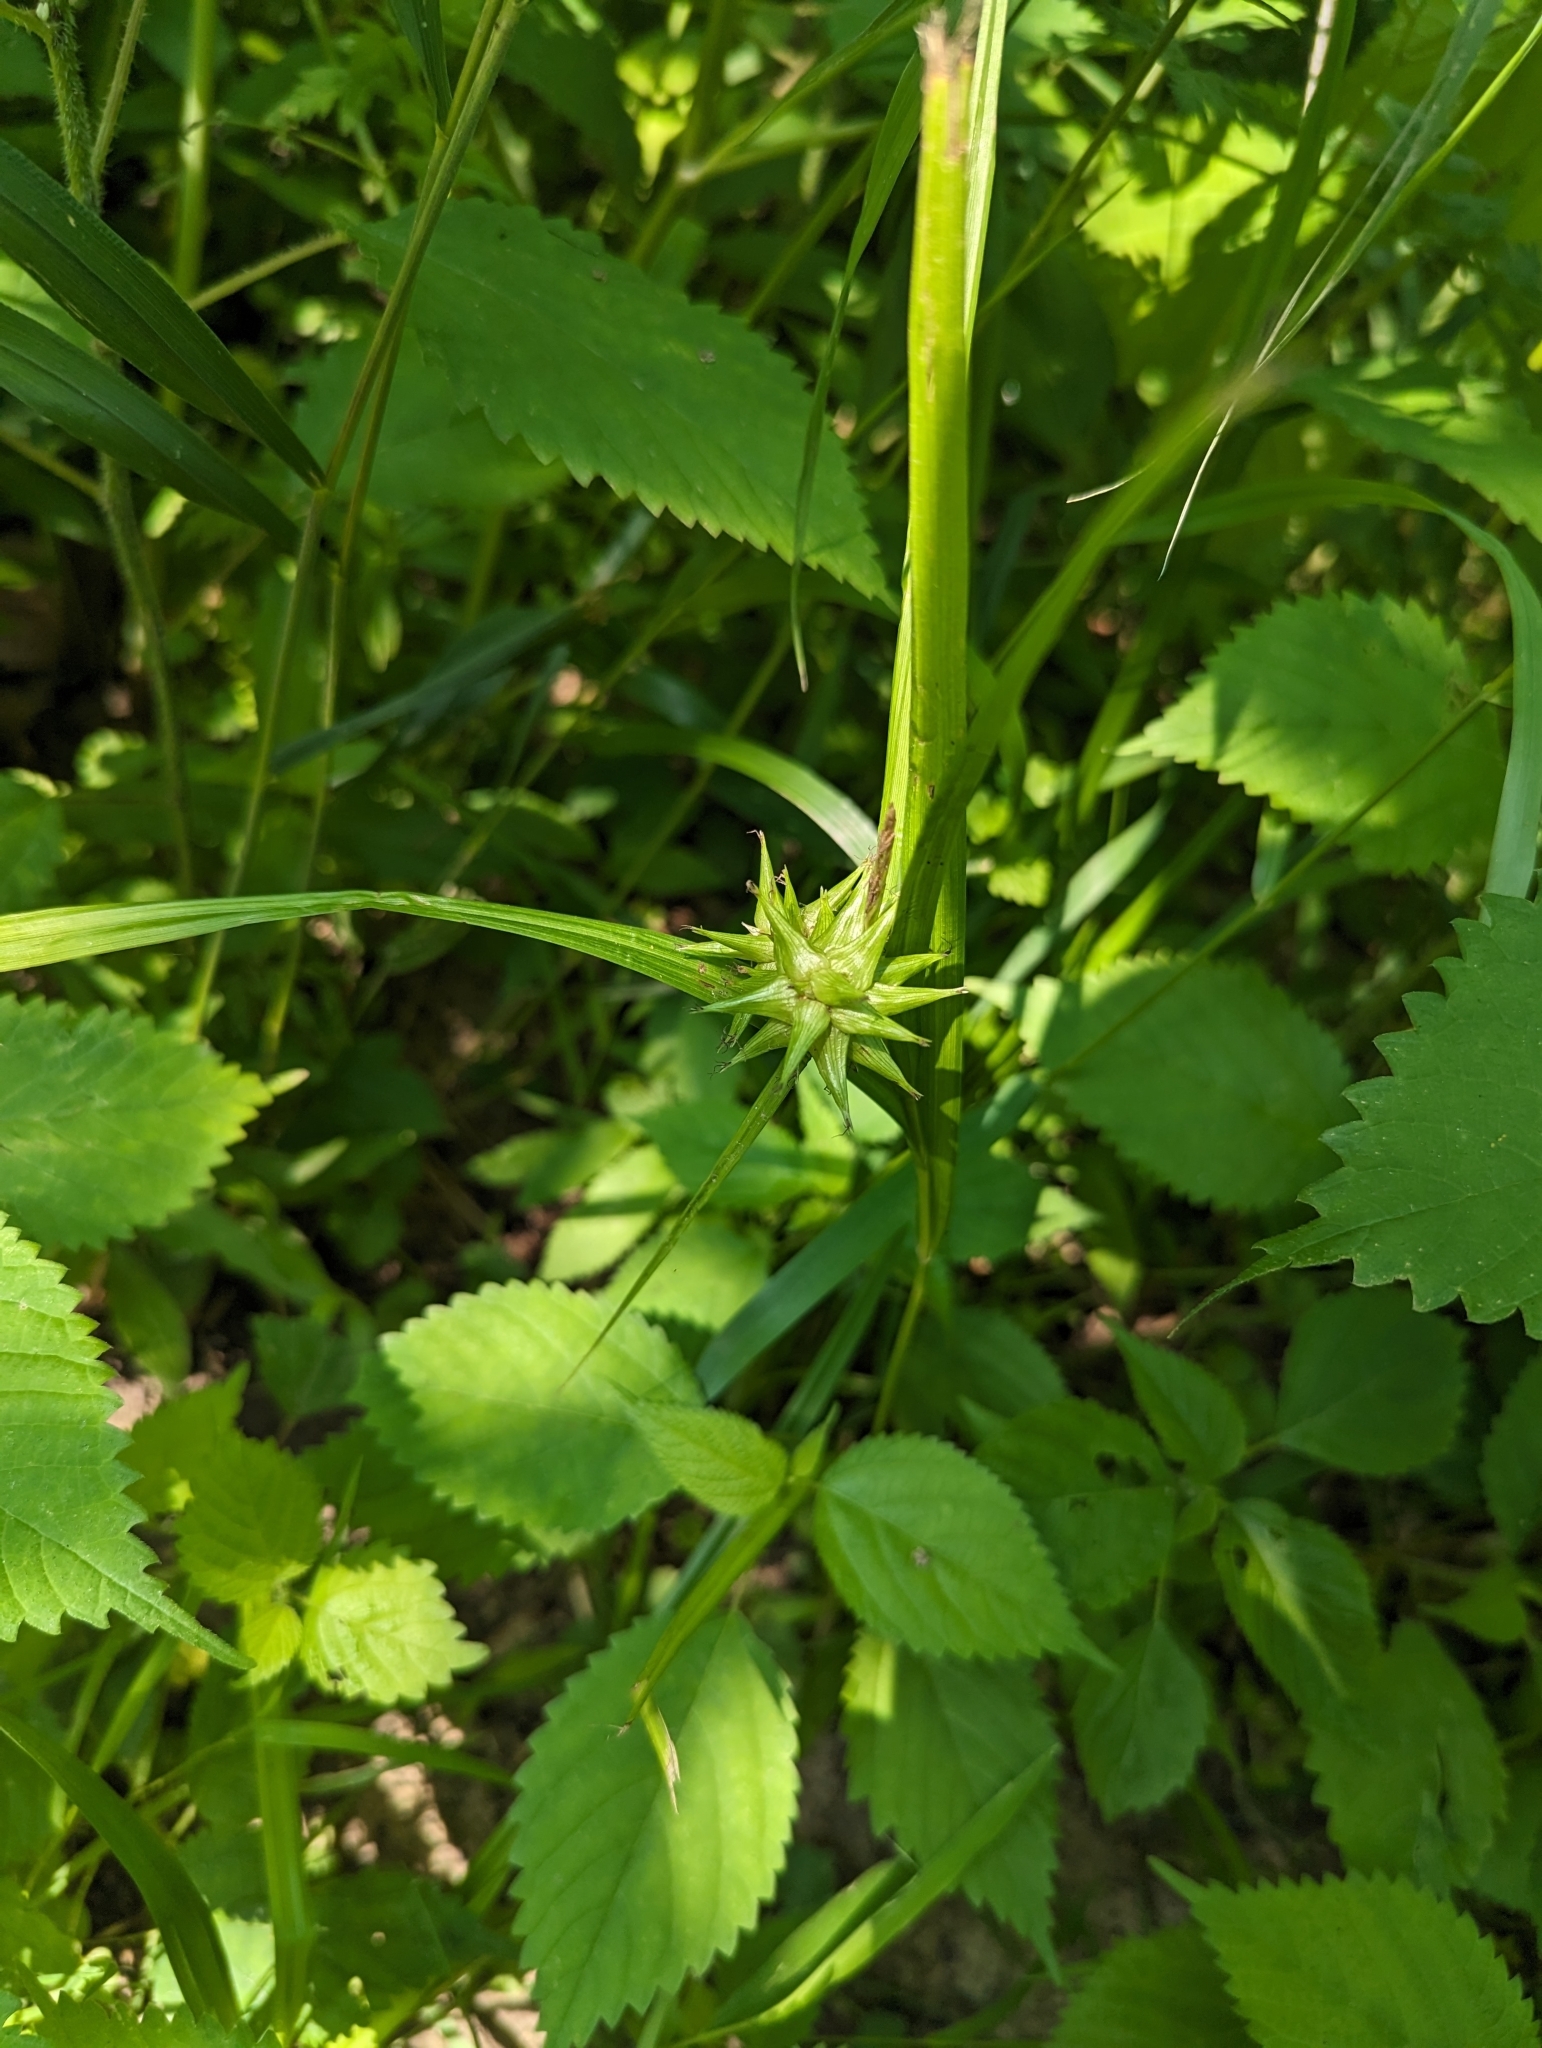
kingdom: Plantae
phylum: Tracheophyta
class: Liliopsida
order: Poales
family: Cyperaceae
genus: Carex
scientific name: Carex grayi
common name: Asa gray's sedge
